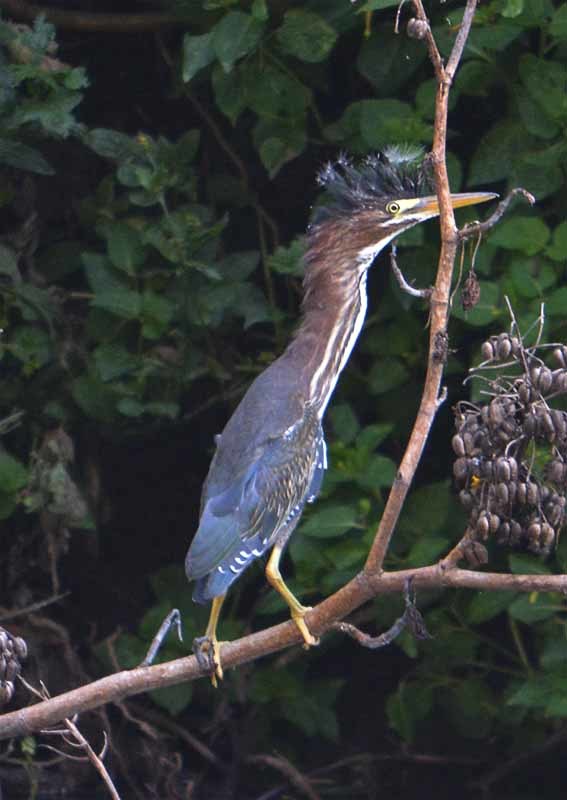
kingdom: Animalia
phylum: Chordata
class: Aves
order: Pelecaniformes
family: Ardeidae
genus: Butorides
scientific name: Butorides virescens
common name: Green heron
